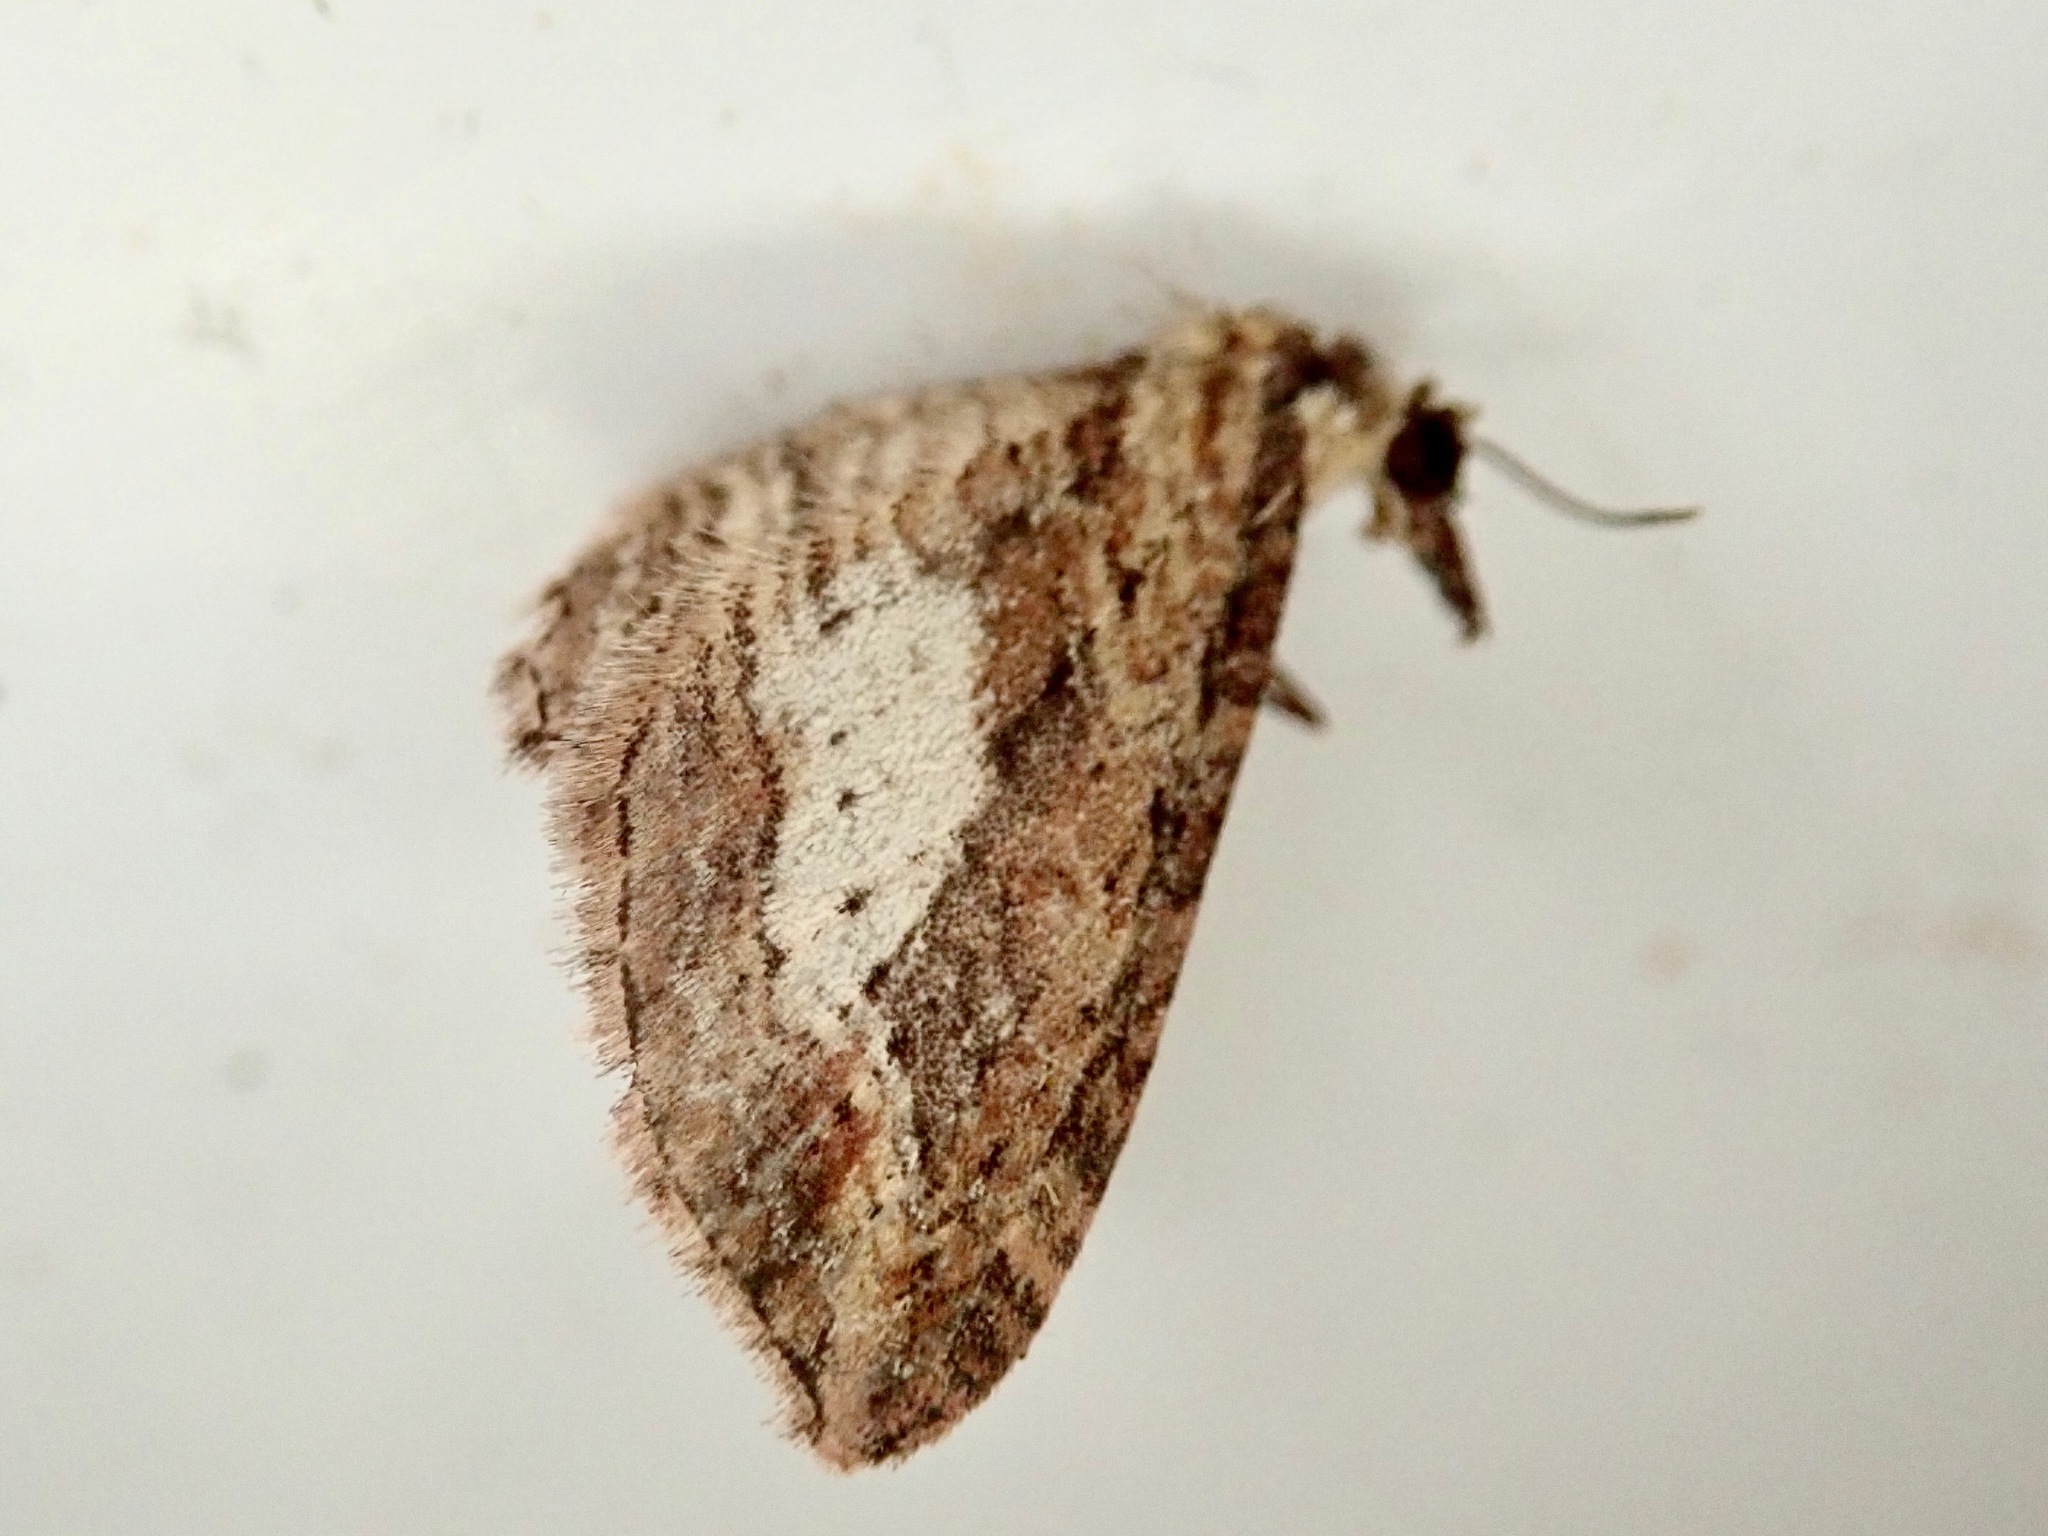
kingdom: Animalia
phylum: Arthropoda
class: Insecta
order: Lepidoptera
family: Geometridae
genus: Chloroclystis
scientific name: Chloroclystis filata
